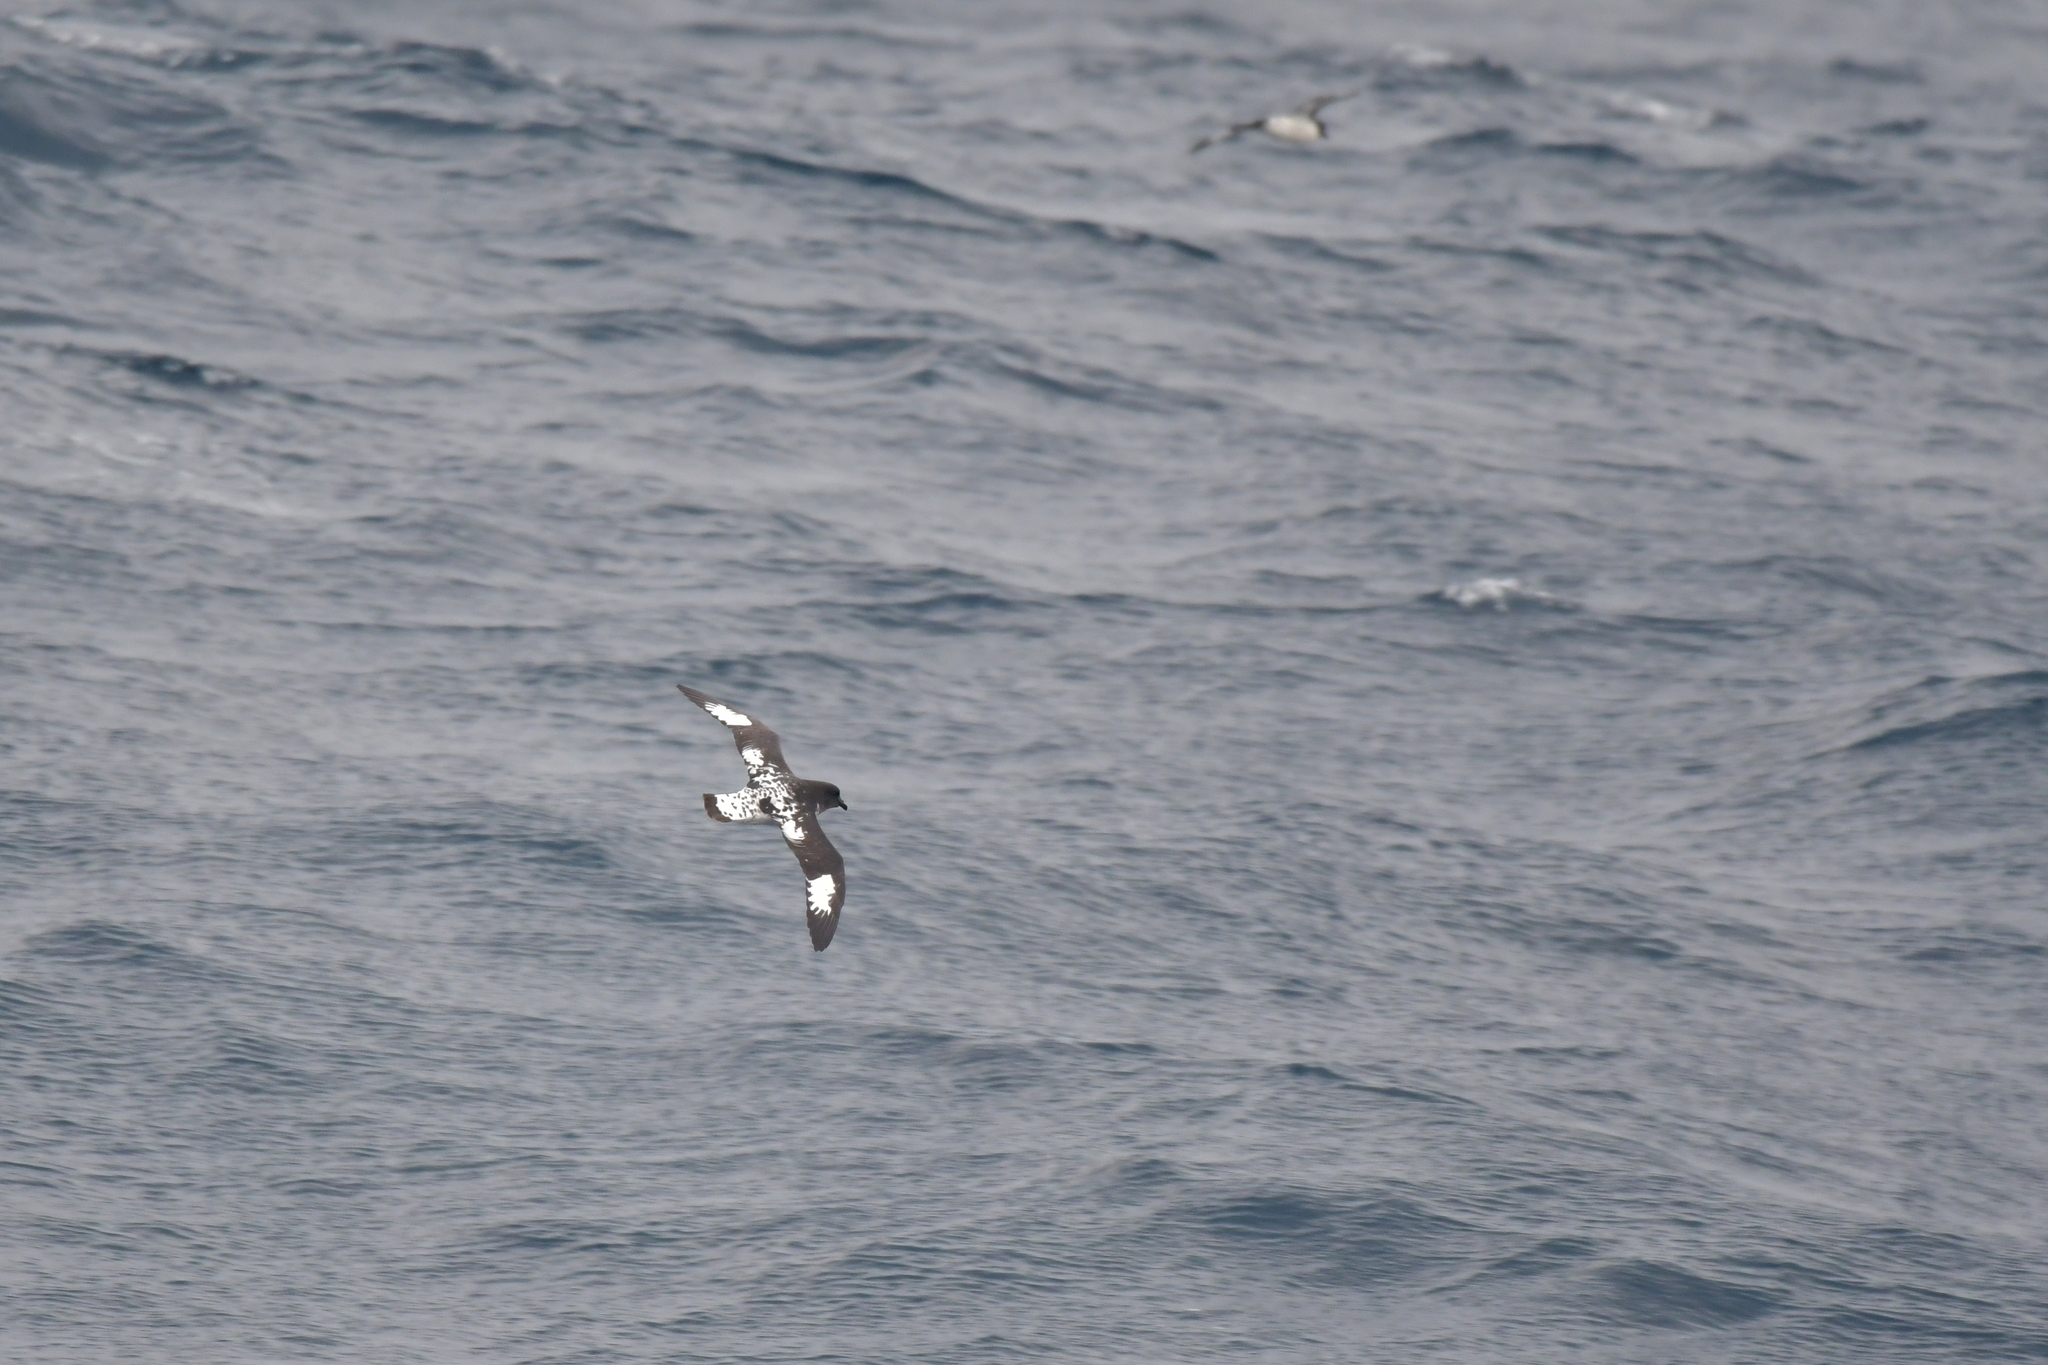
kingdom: Animalia
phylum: Chordata
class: Aves
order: Procellariiformes
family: Procellariidae
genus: Daption
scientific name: Daption capense
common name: Cape petrel
